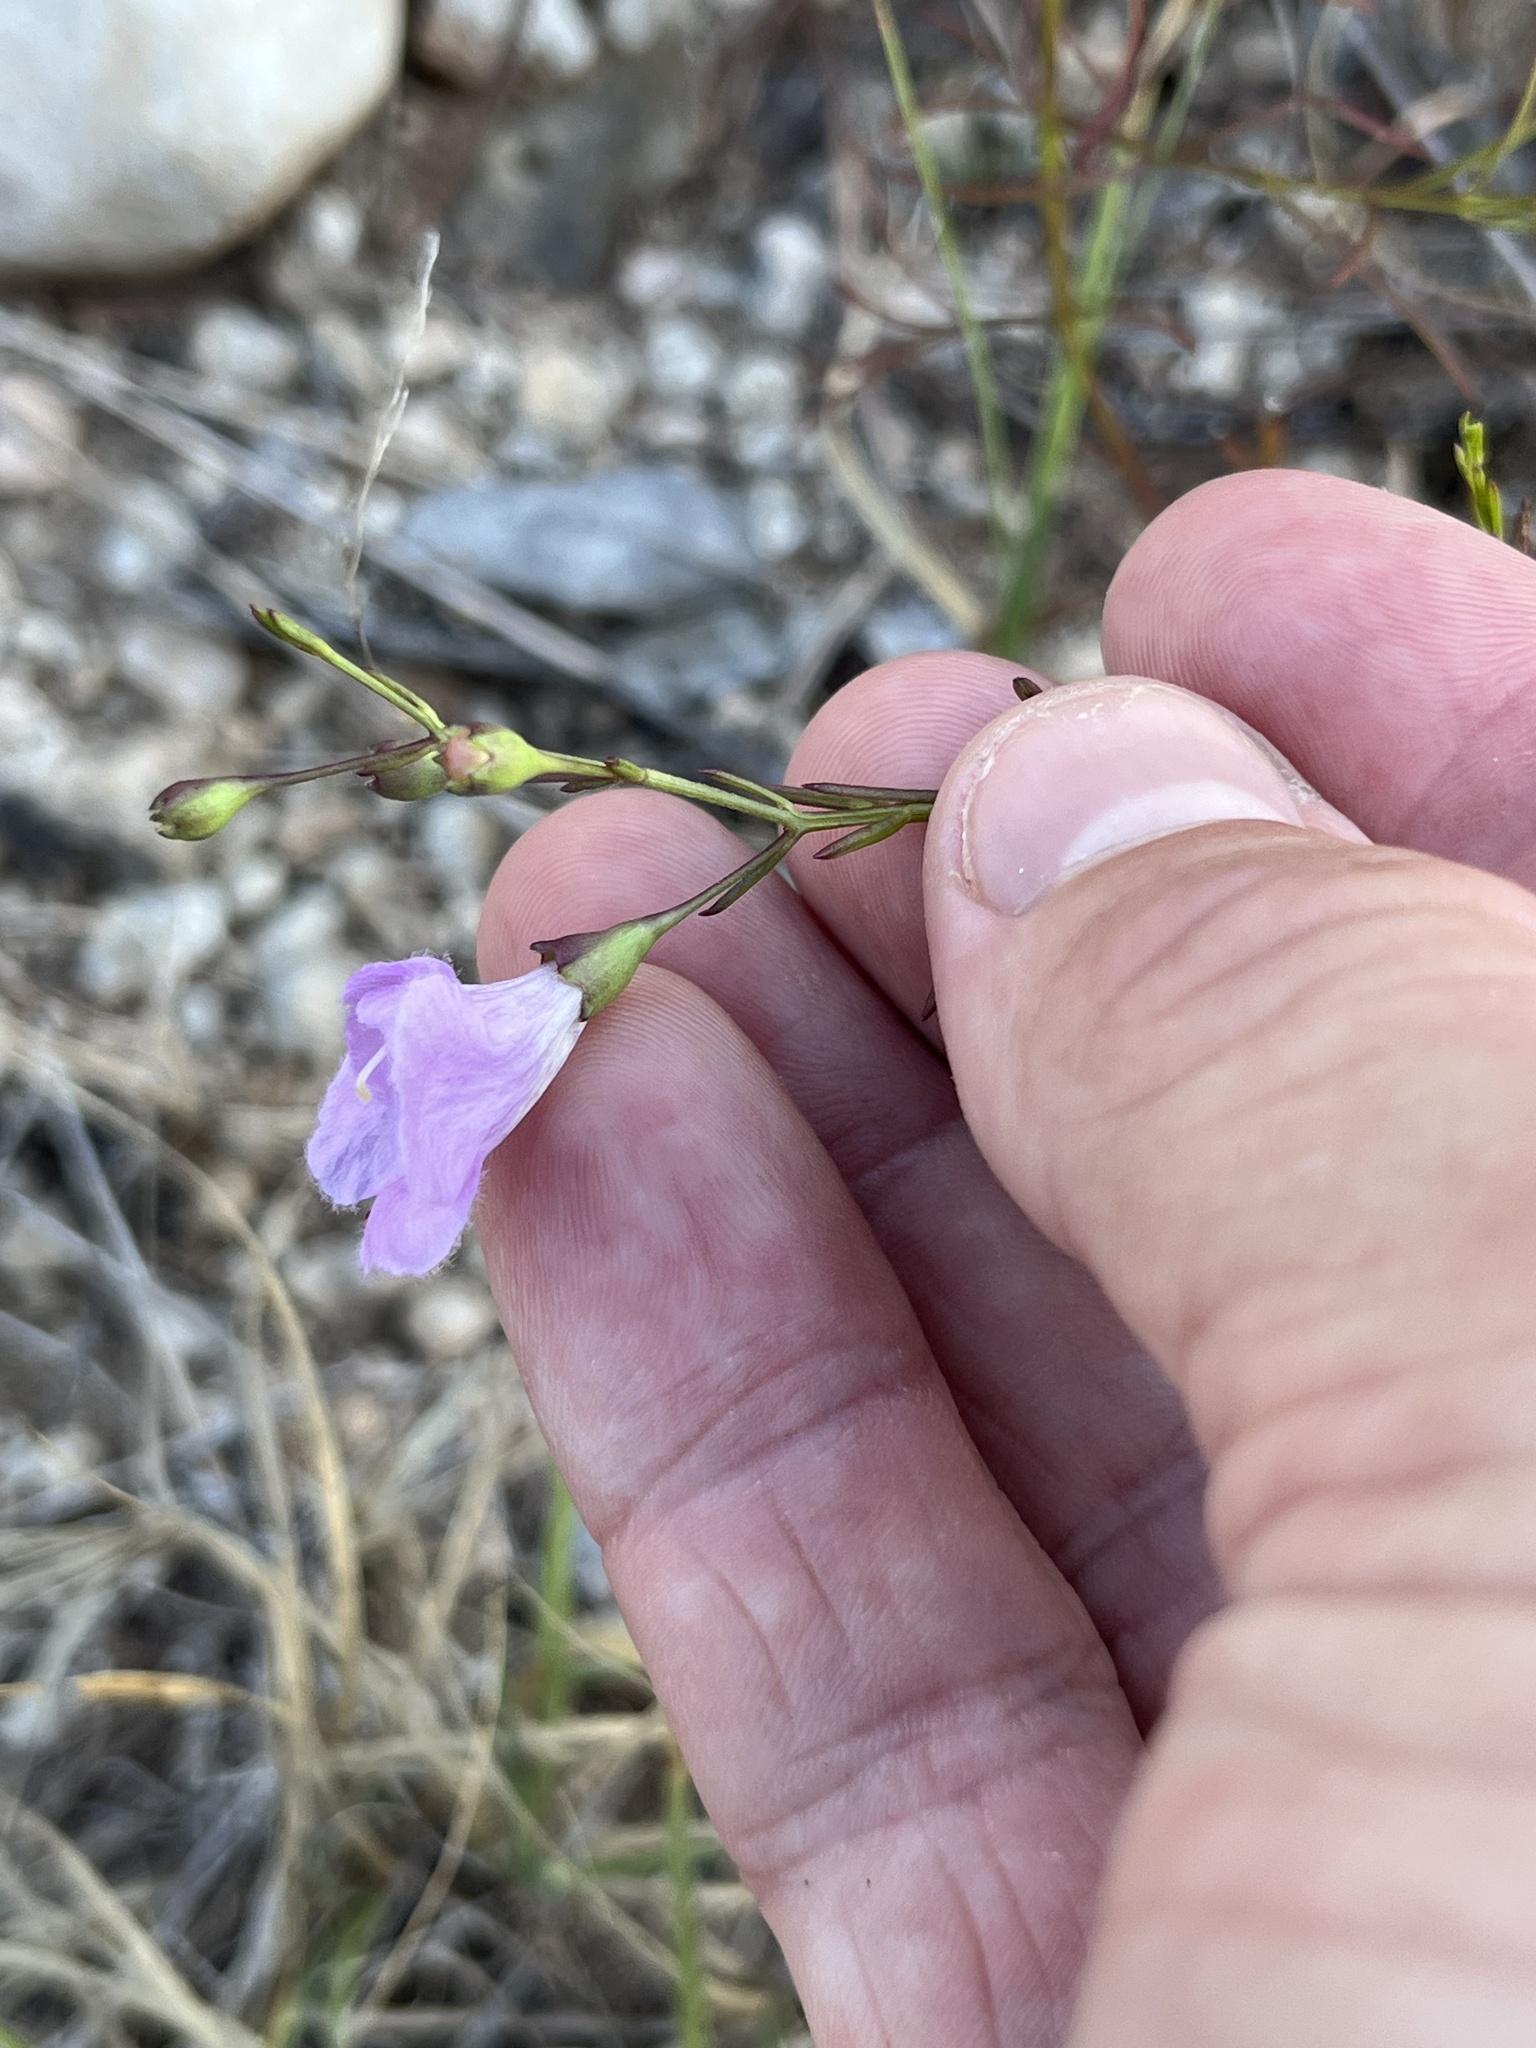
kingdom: Plantae
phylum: Tracheophyta
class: Magnoliopsida
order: Lamiales
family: Orobanchaceae
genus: Agalinis
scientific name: Agalinis edwardsiana
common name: Plateau-gerardia
